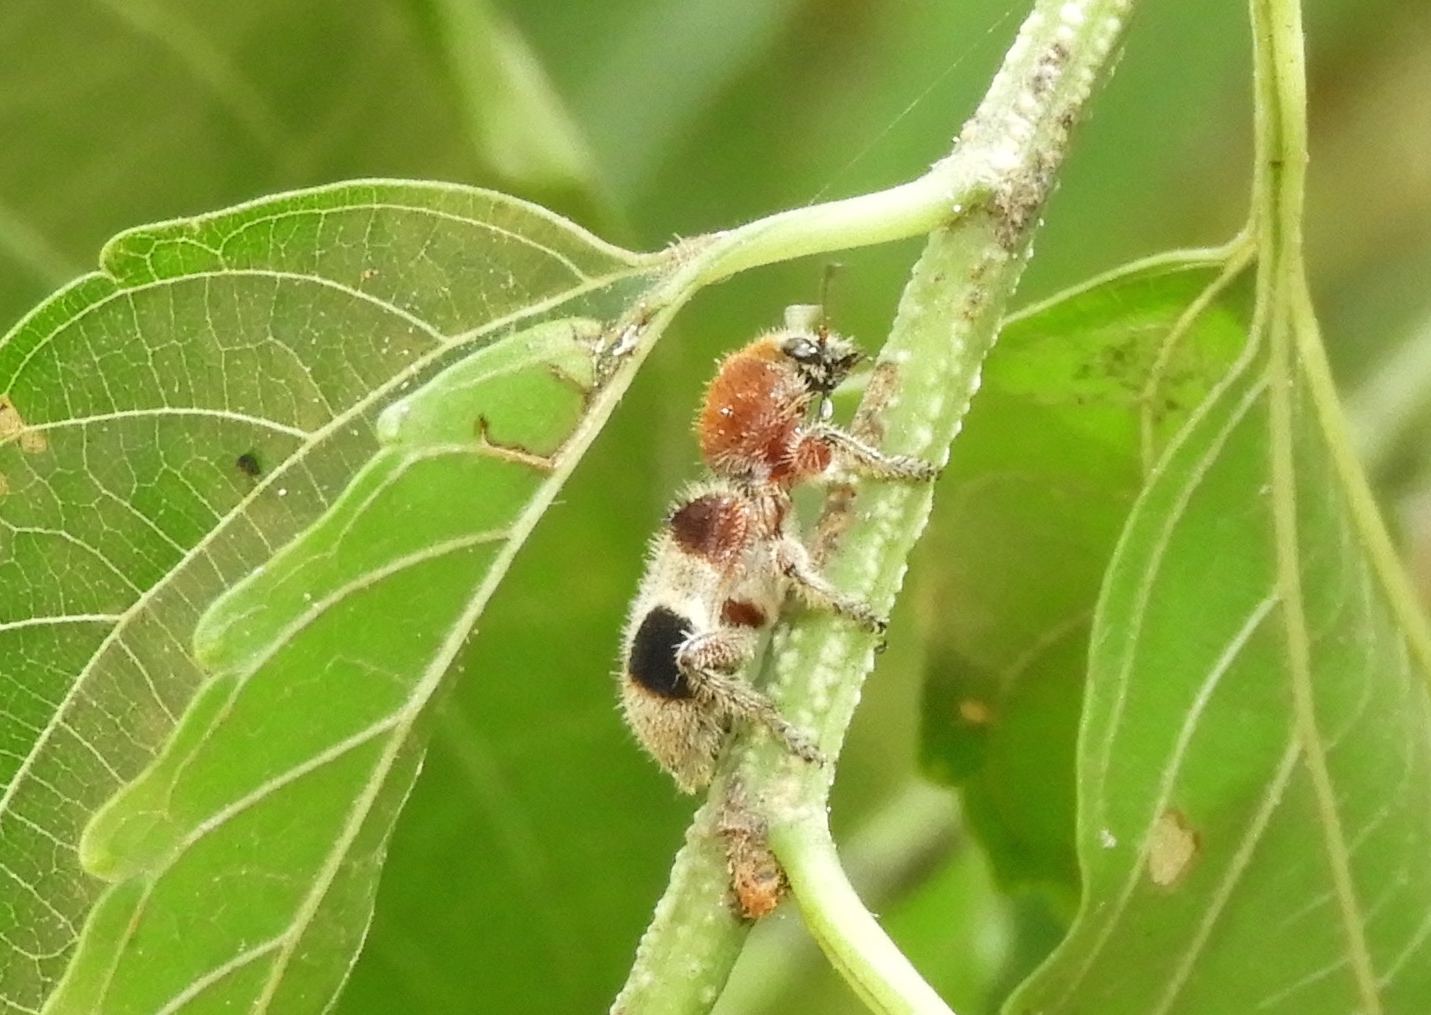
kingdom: Animalia
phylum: Arthropoda
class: Insecta
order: Coleoptera
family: Cleridae
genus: Enoclerus
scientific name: Enoclerus quadriguttatus
